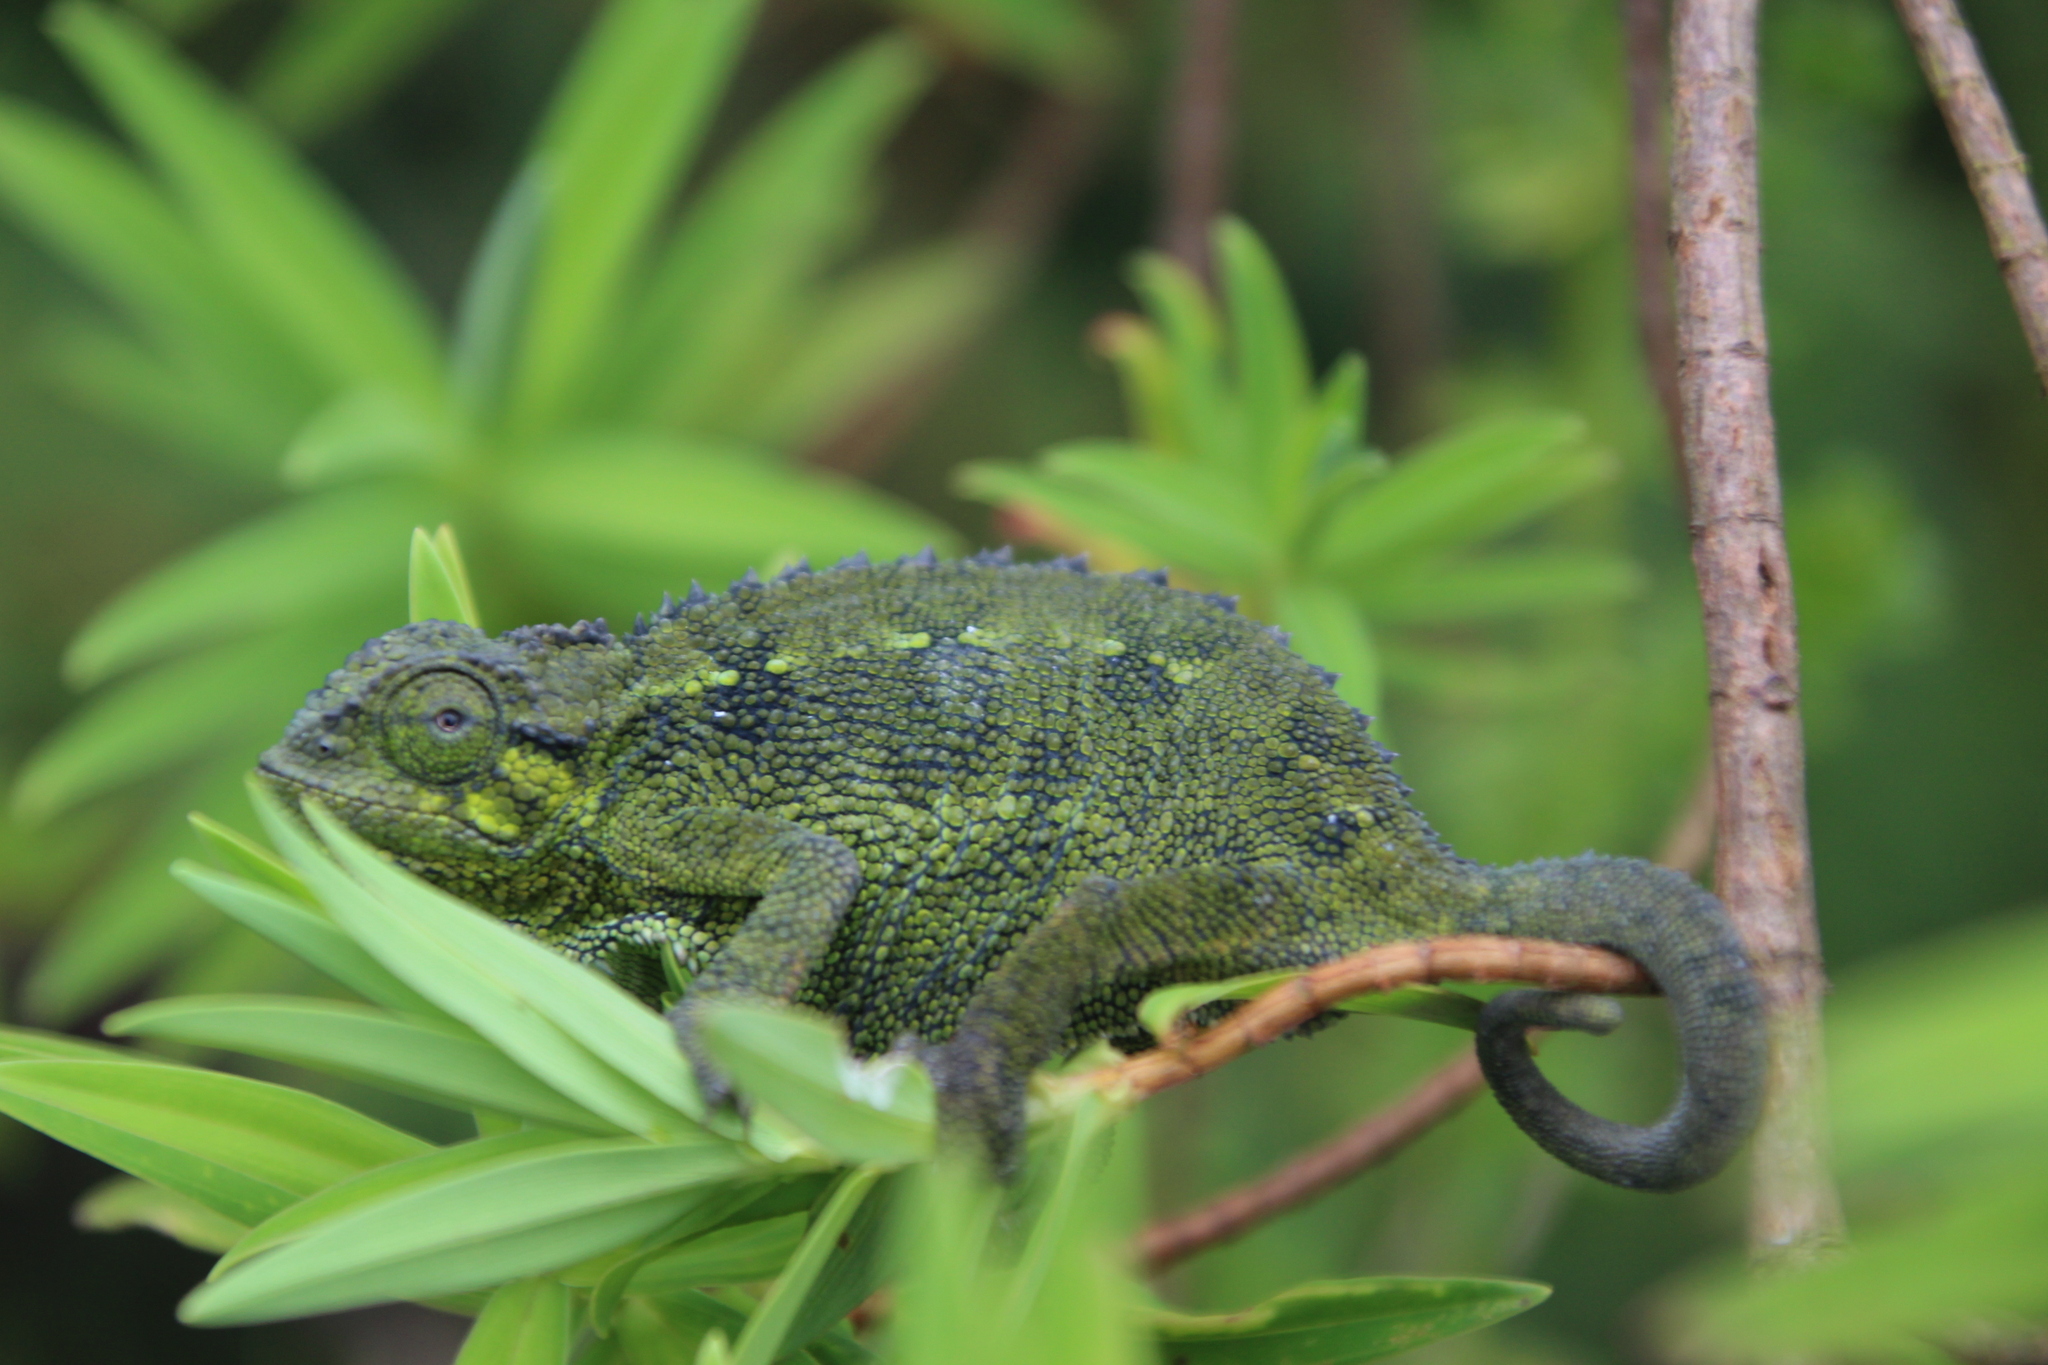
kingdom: Animalia
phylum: Chordata
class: Squamata
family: Chamaeleonidae
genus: Trioceros
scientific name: Trioceros rudis
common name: Coarse chameleon
